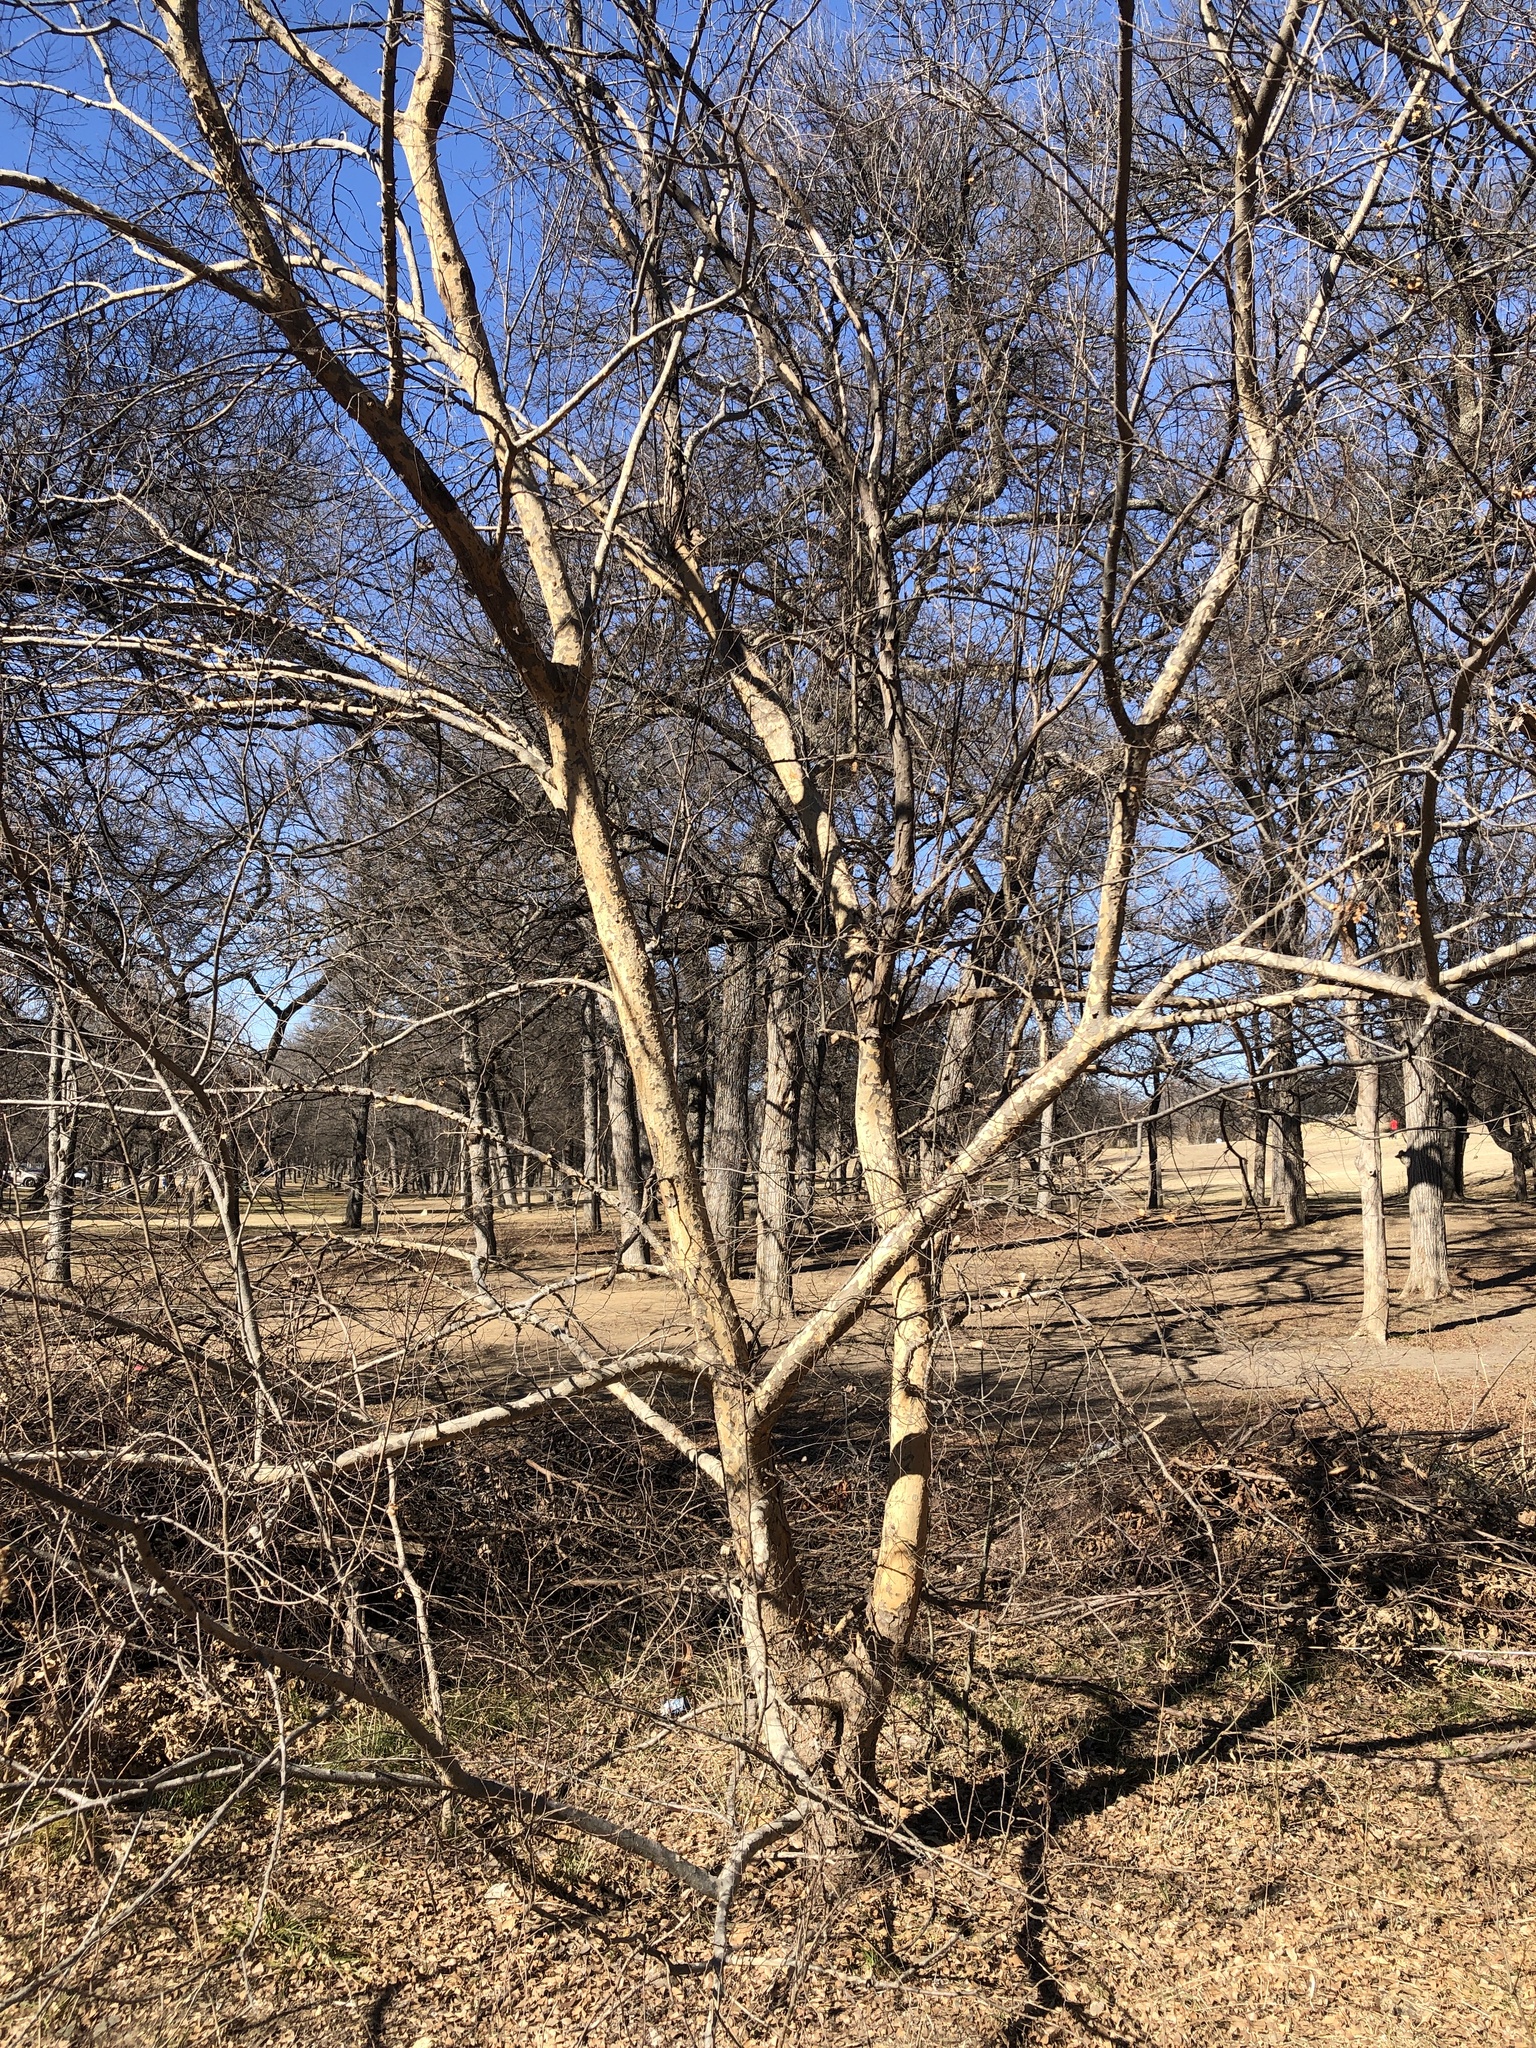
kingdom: Plantae
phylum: Tracheophyta
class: Magnoliopsida
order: Rosales
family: Ulmaceae
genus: Ulmus
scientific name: Ulmus parvifolia
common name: Chinese elm
